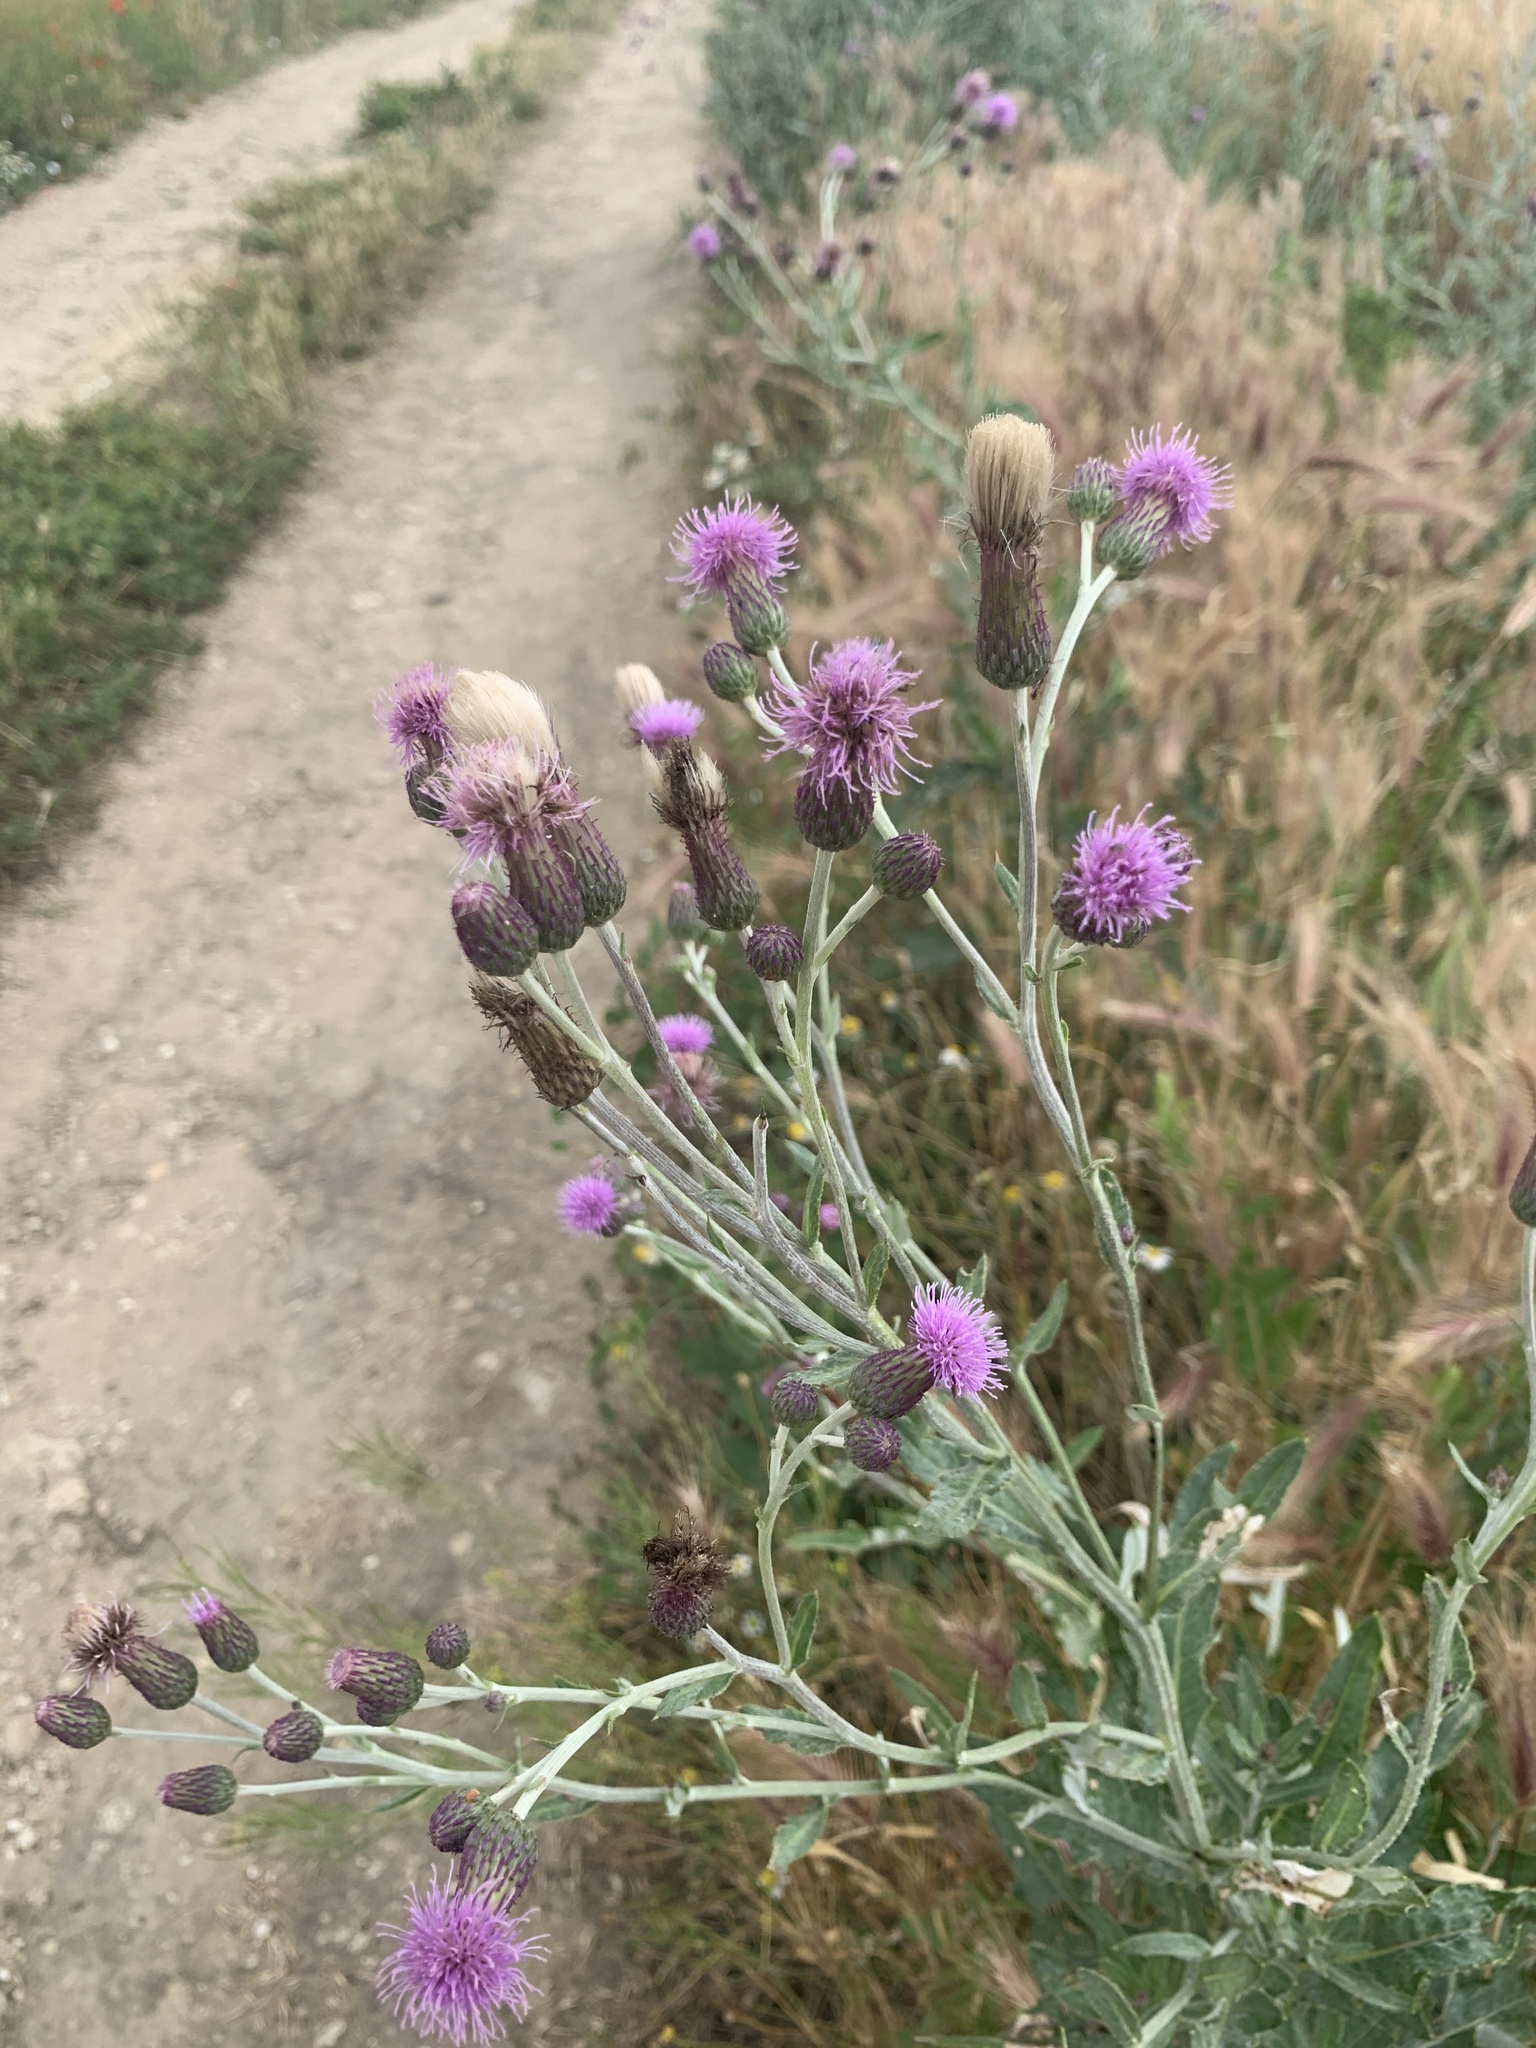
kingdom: Plantae
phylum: Tracheophyta
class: Magnoliopsida
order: Asterales
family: Asteraceae
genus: Cirsium
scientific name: Cirsium arvense
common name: Creeping thistle
